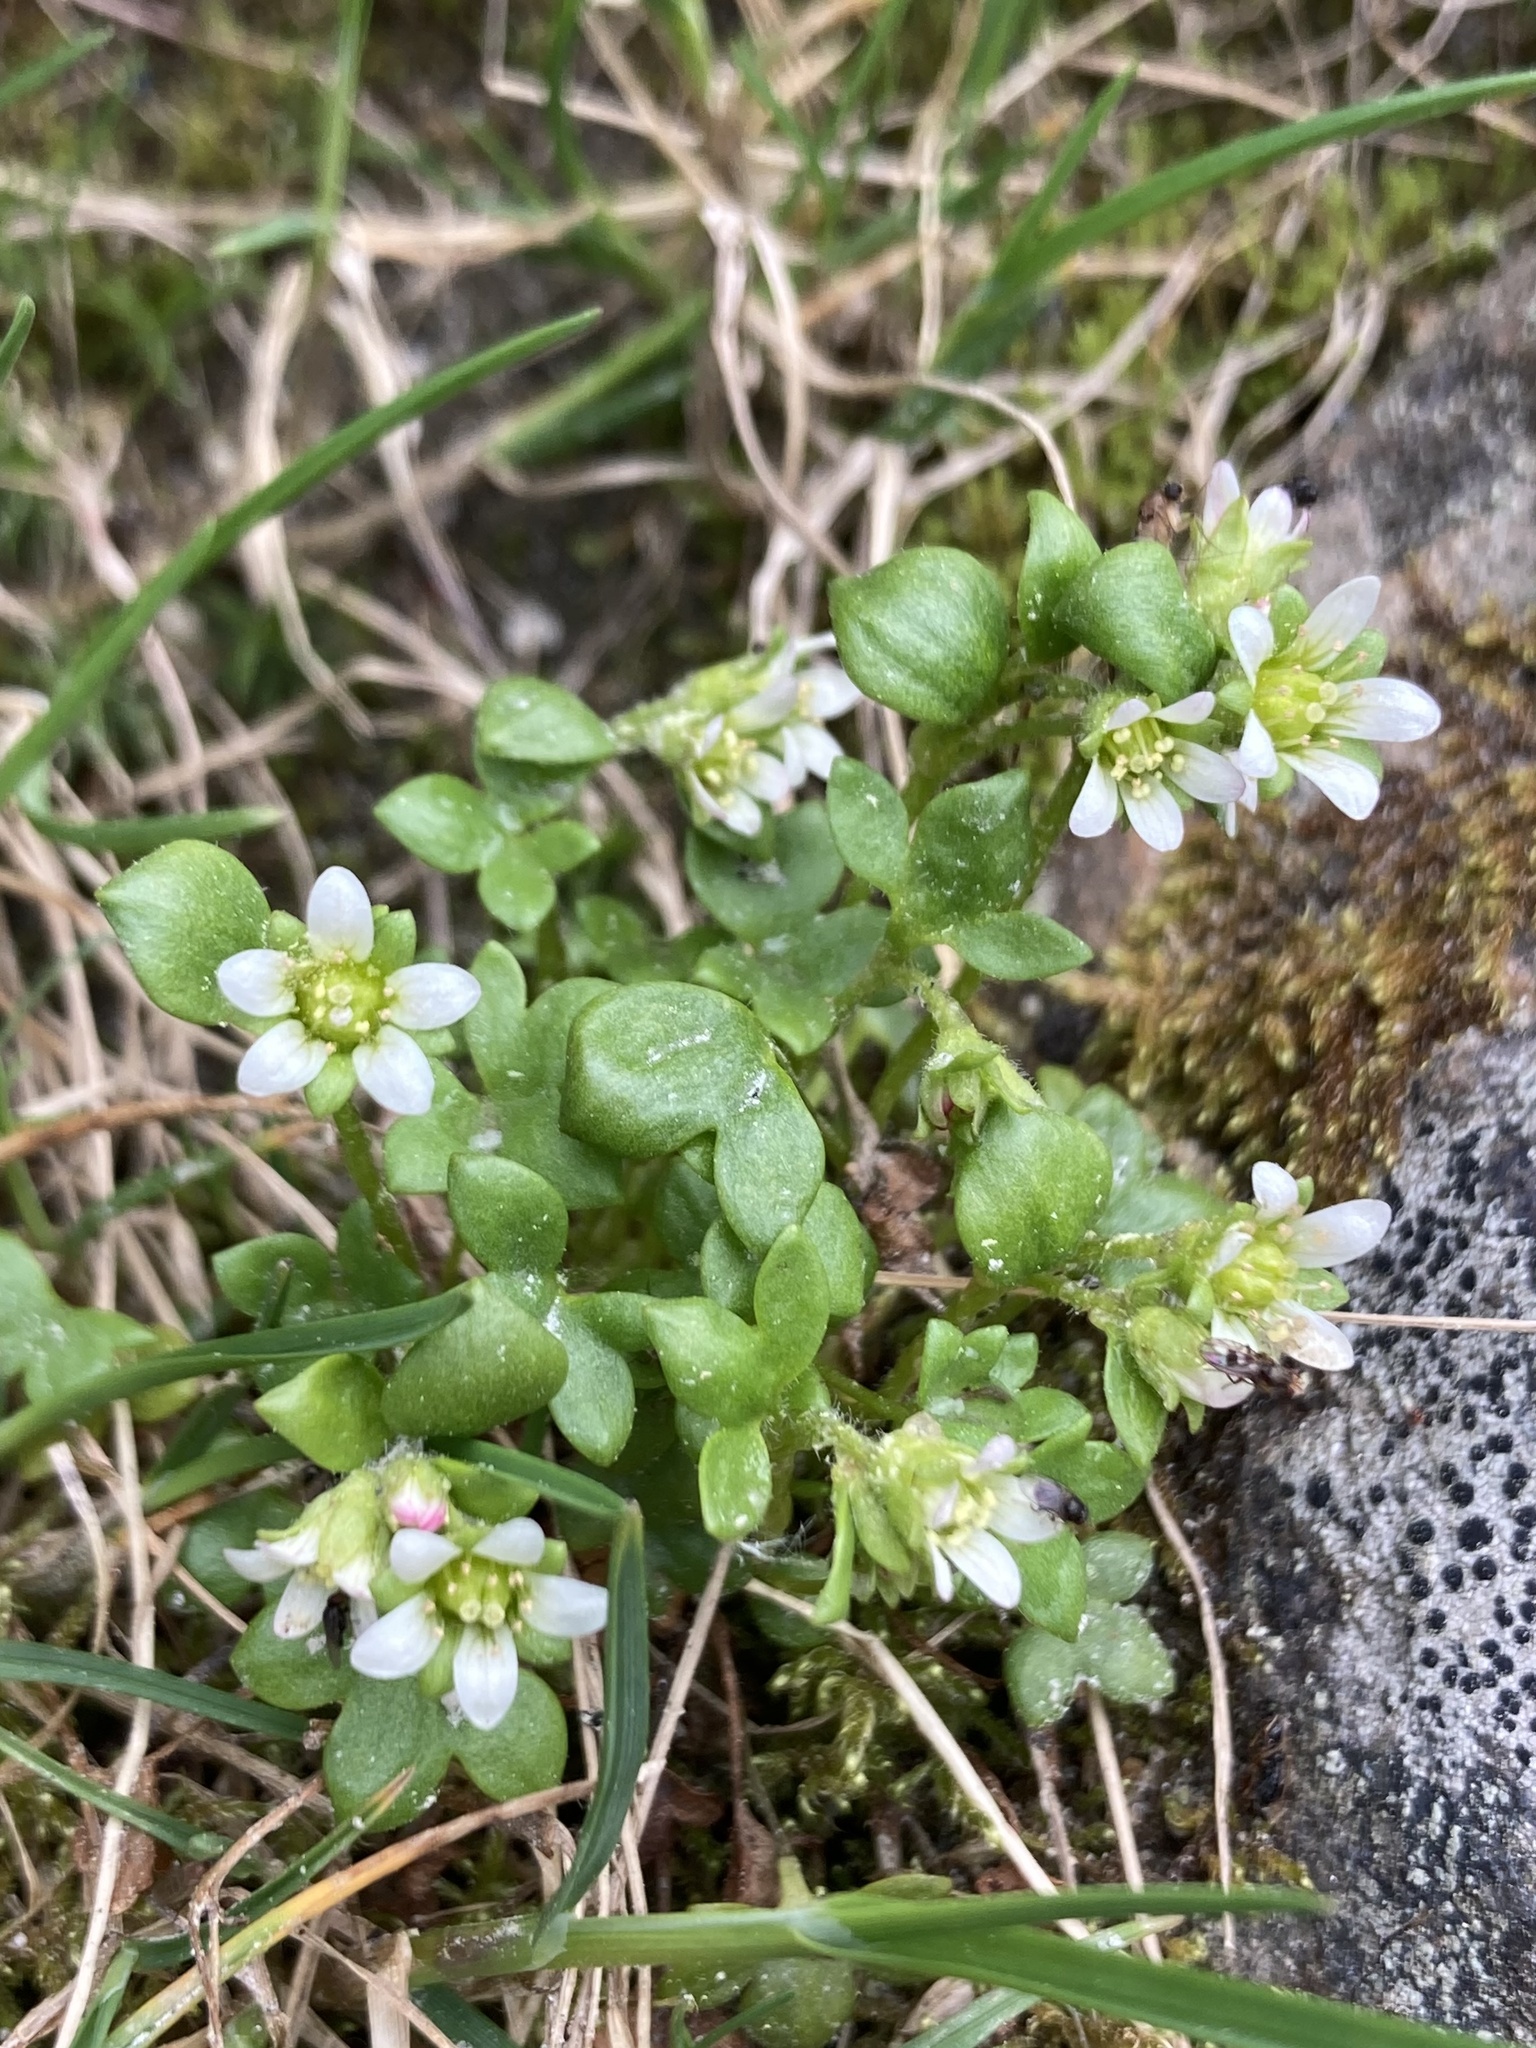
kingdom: Plantae
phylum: Tracheophyta
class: Magnoliopsida
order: Saxifragales
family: Saxifragaceae
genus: Saxifraga
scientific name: Saxifraga rivularis
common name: Highland saxifrage
